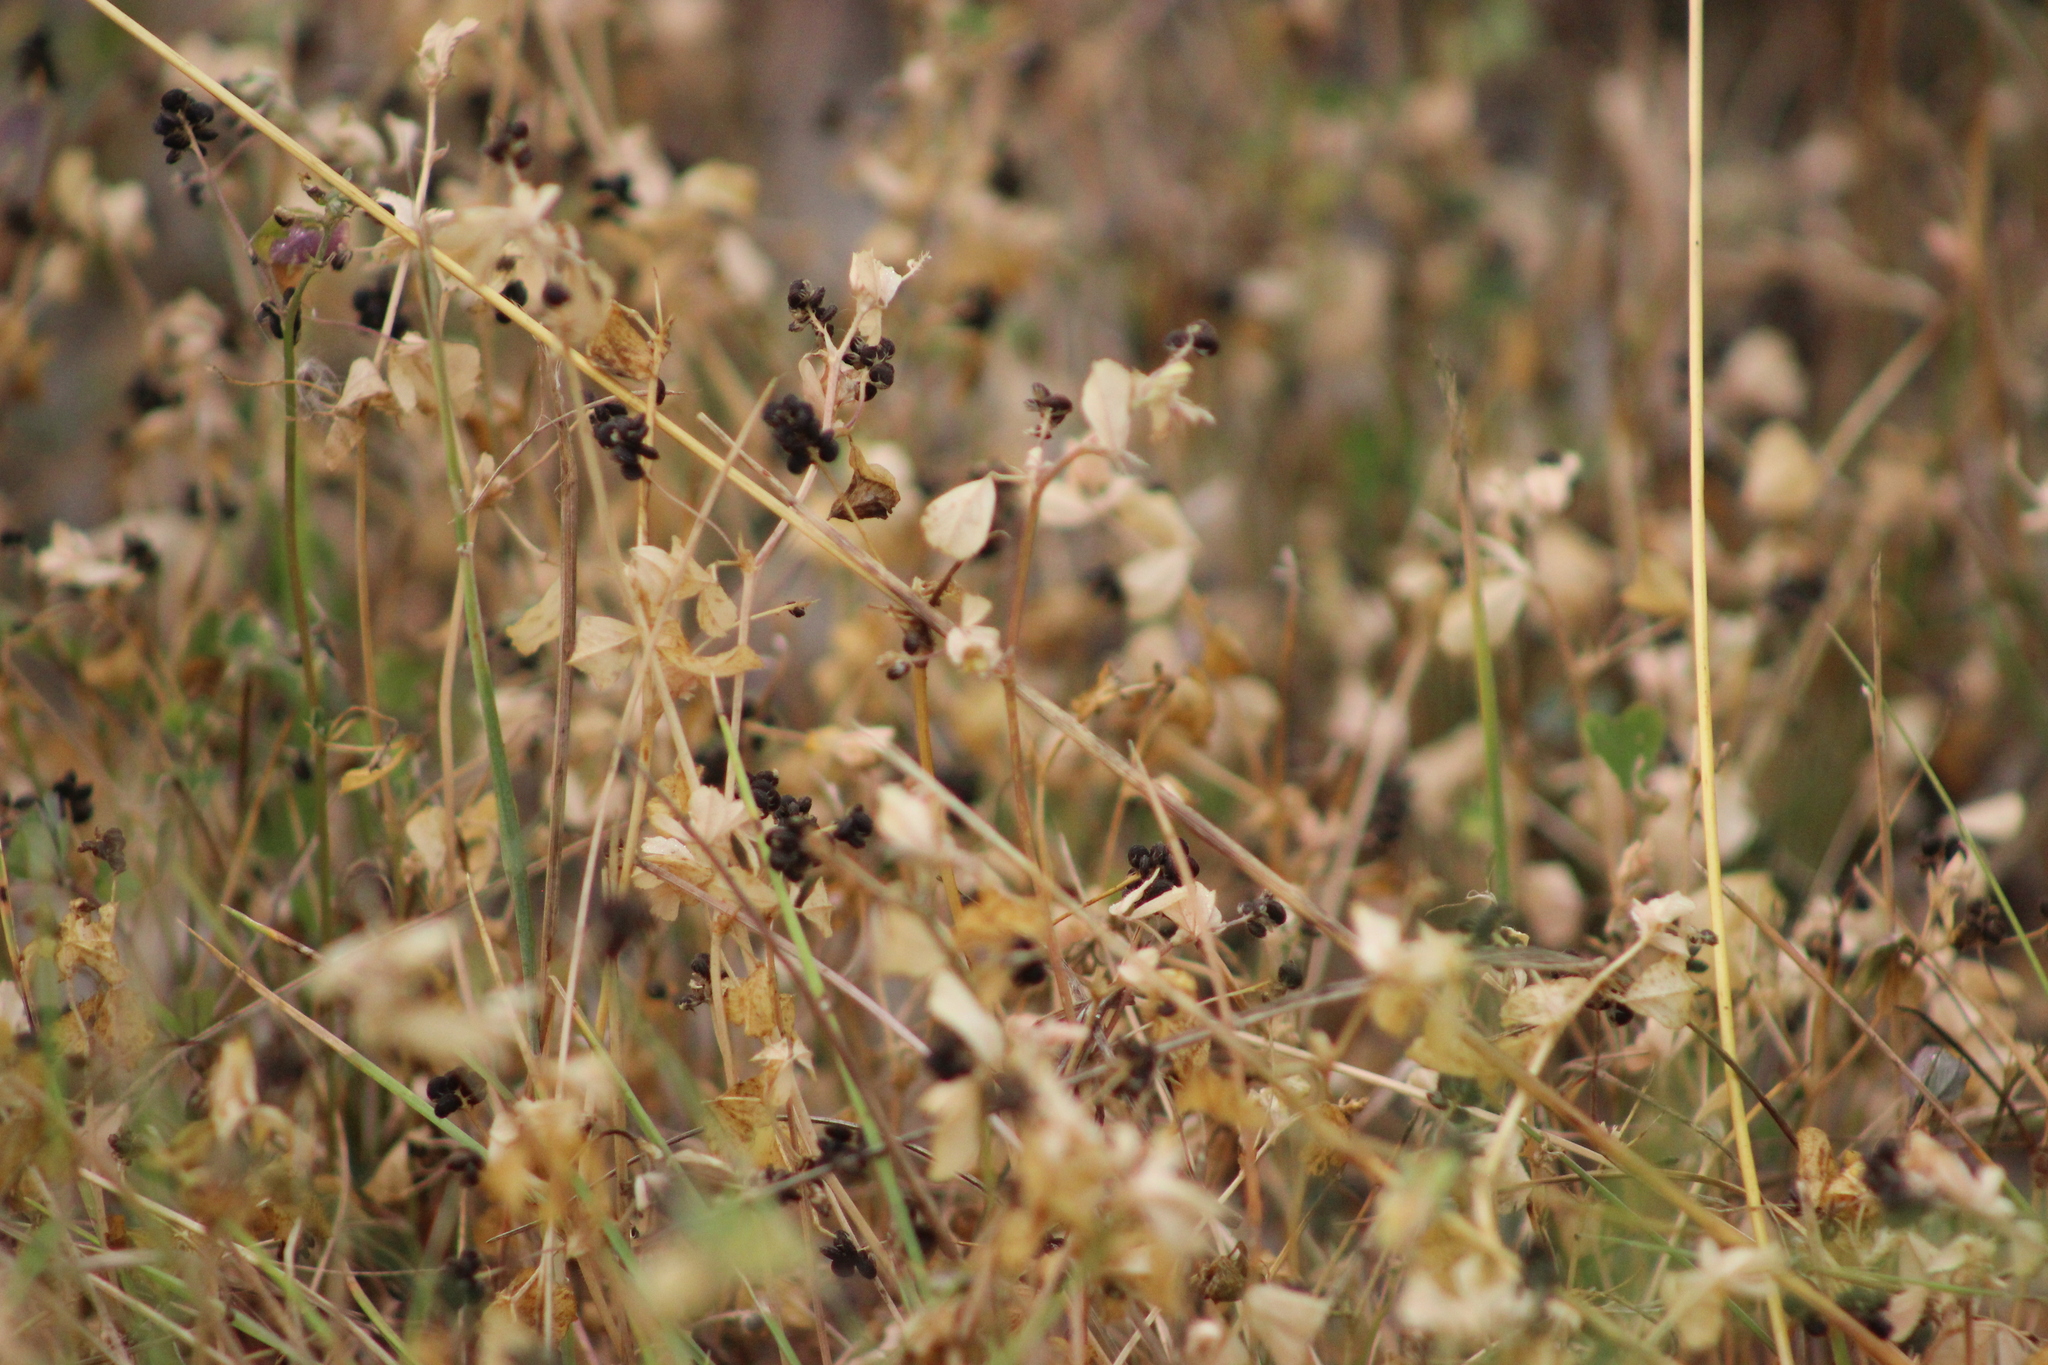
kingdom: Plantae
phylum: Tracheophyta
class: Magnoliopsida
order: Fabales
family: Fabaceae
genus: Medicago
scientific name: Medicago lupulina
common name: Black medick
